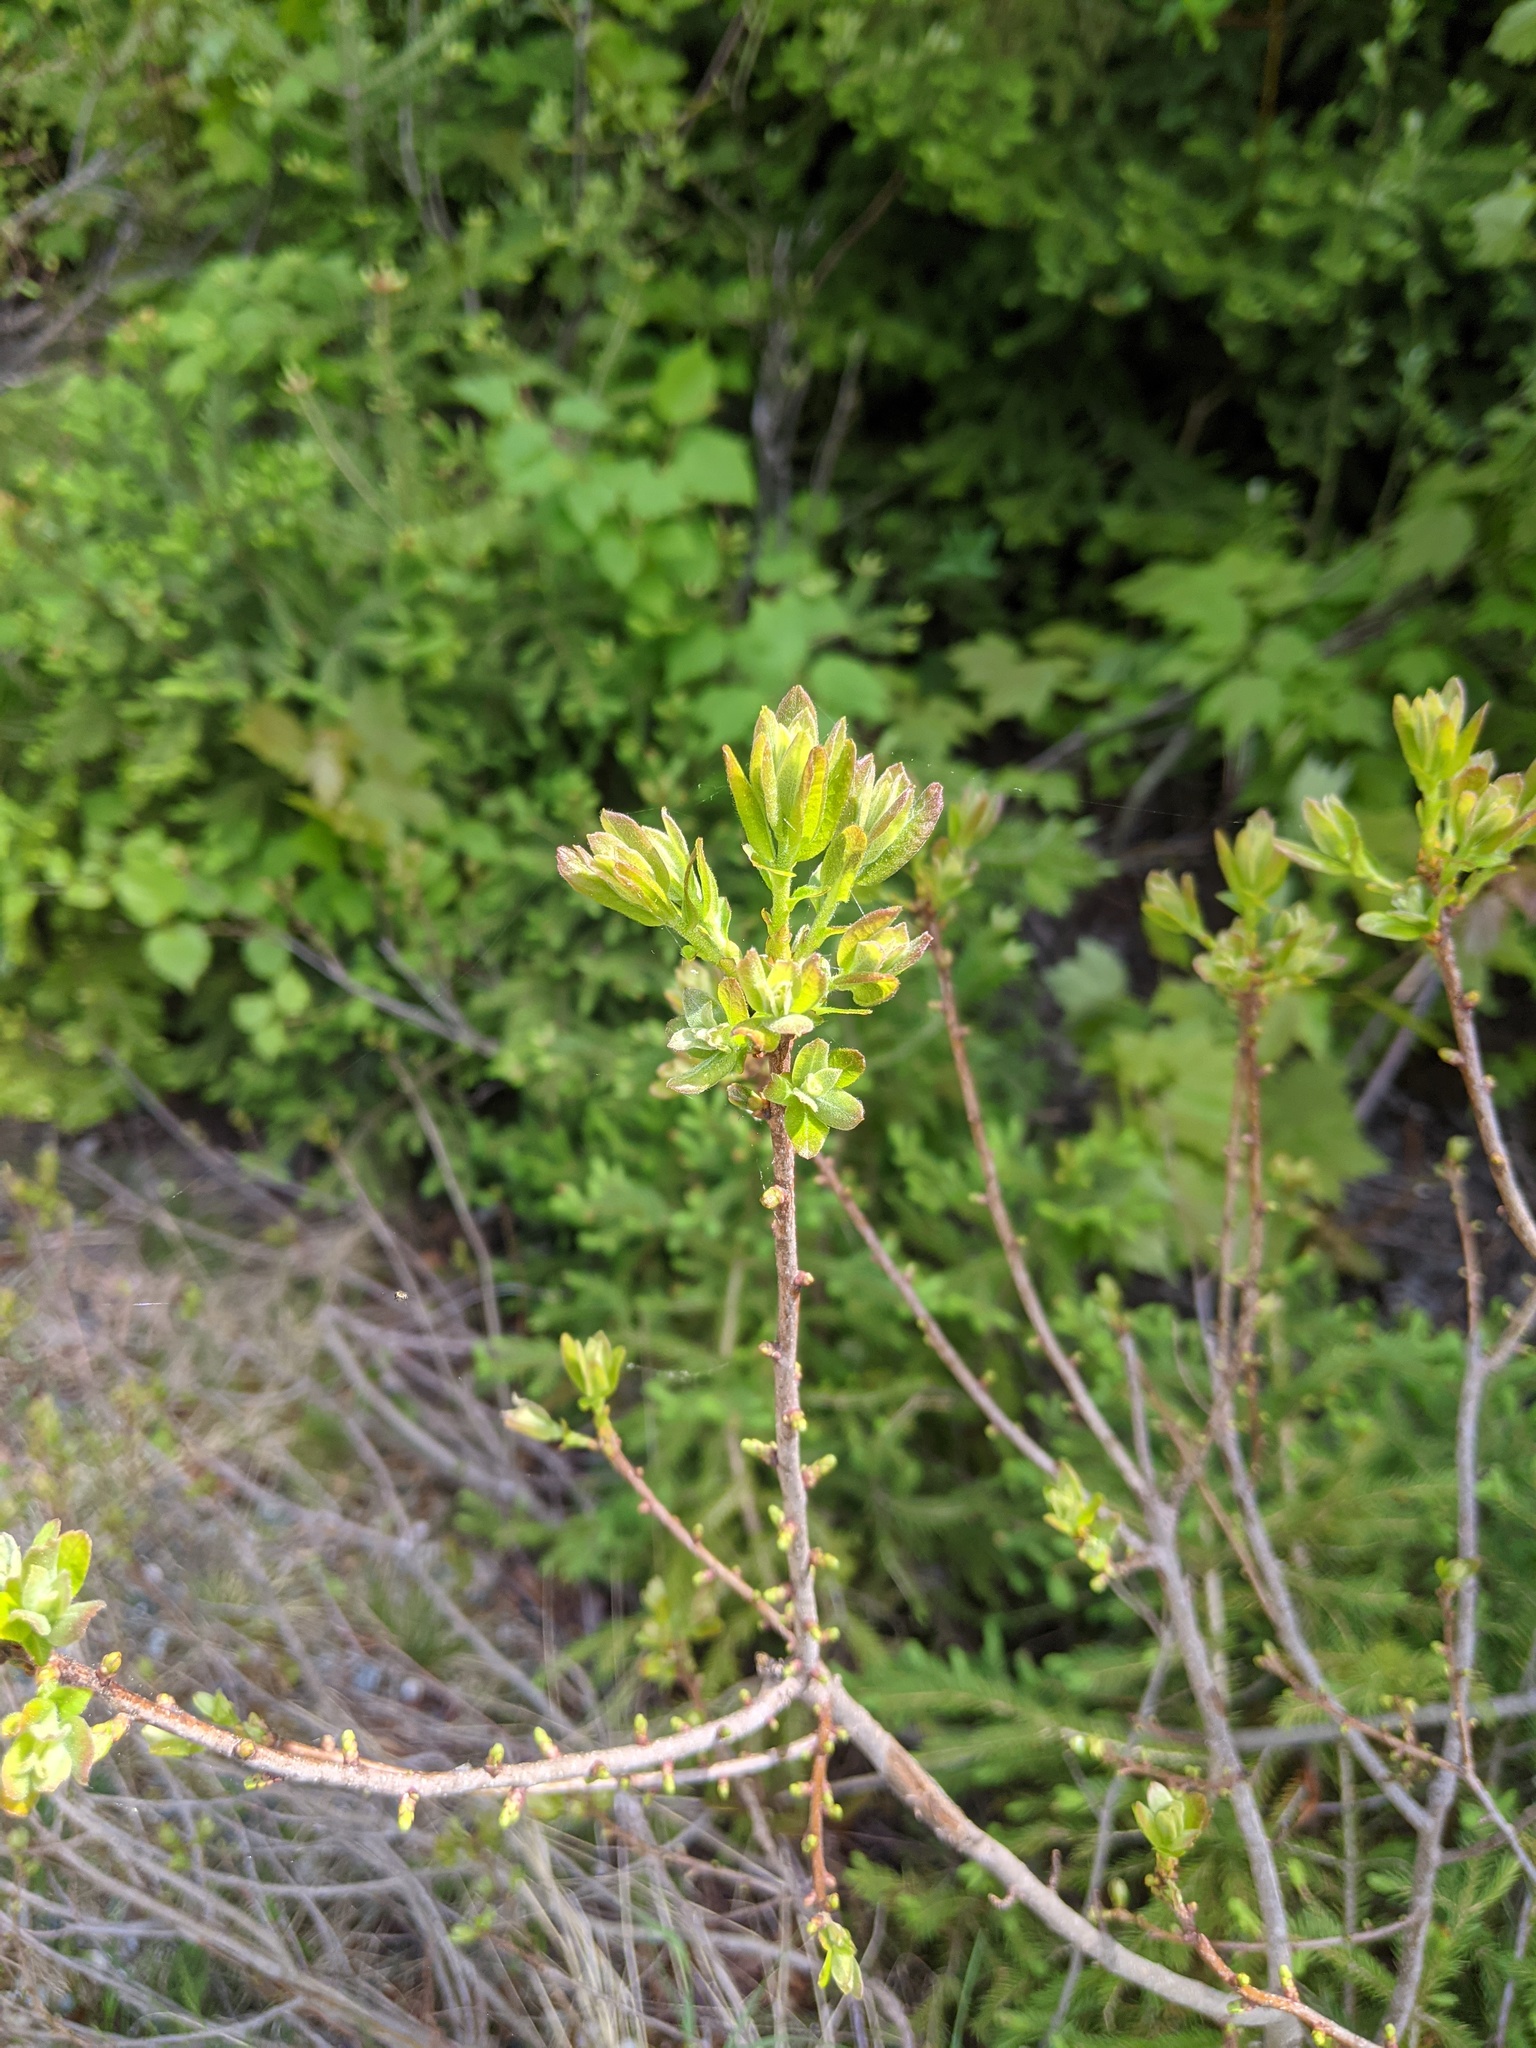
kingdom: Plantae
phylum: Tracheophyta
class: Magnoliopsida
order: Fagales
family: Myricaceae
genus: Morella
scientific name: Morella pensylvanica
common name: Northern bayberry
